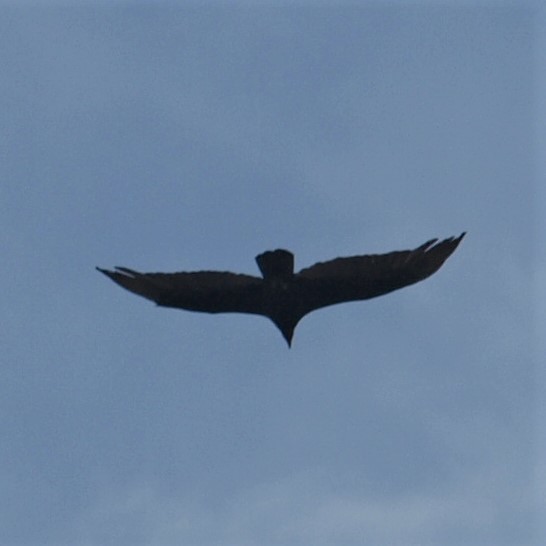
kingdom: Animalia
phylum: Chordata
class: Aves
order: Accipitriformes
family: Cathartidae
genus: Cathartes
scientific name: Cathartes aura
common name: Turkey vulture
